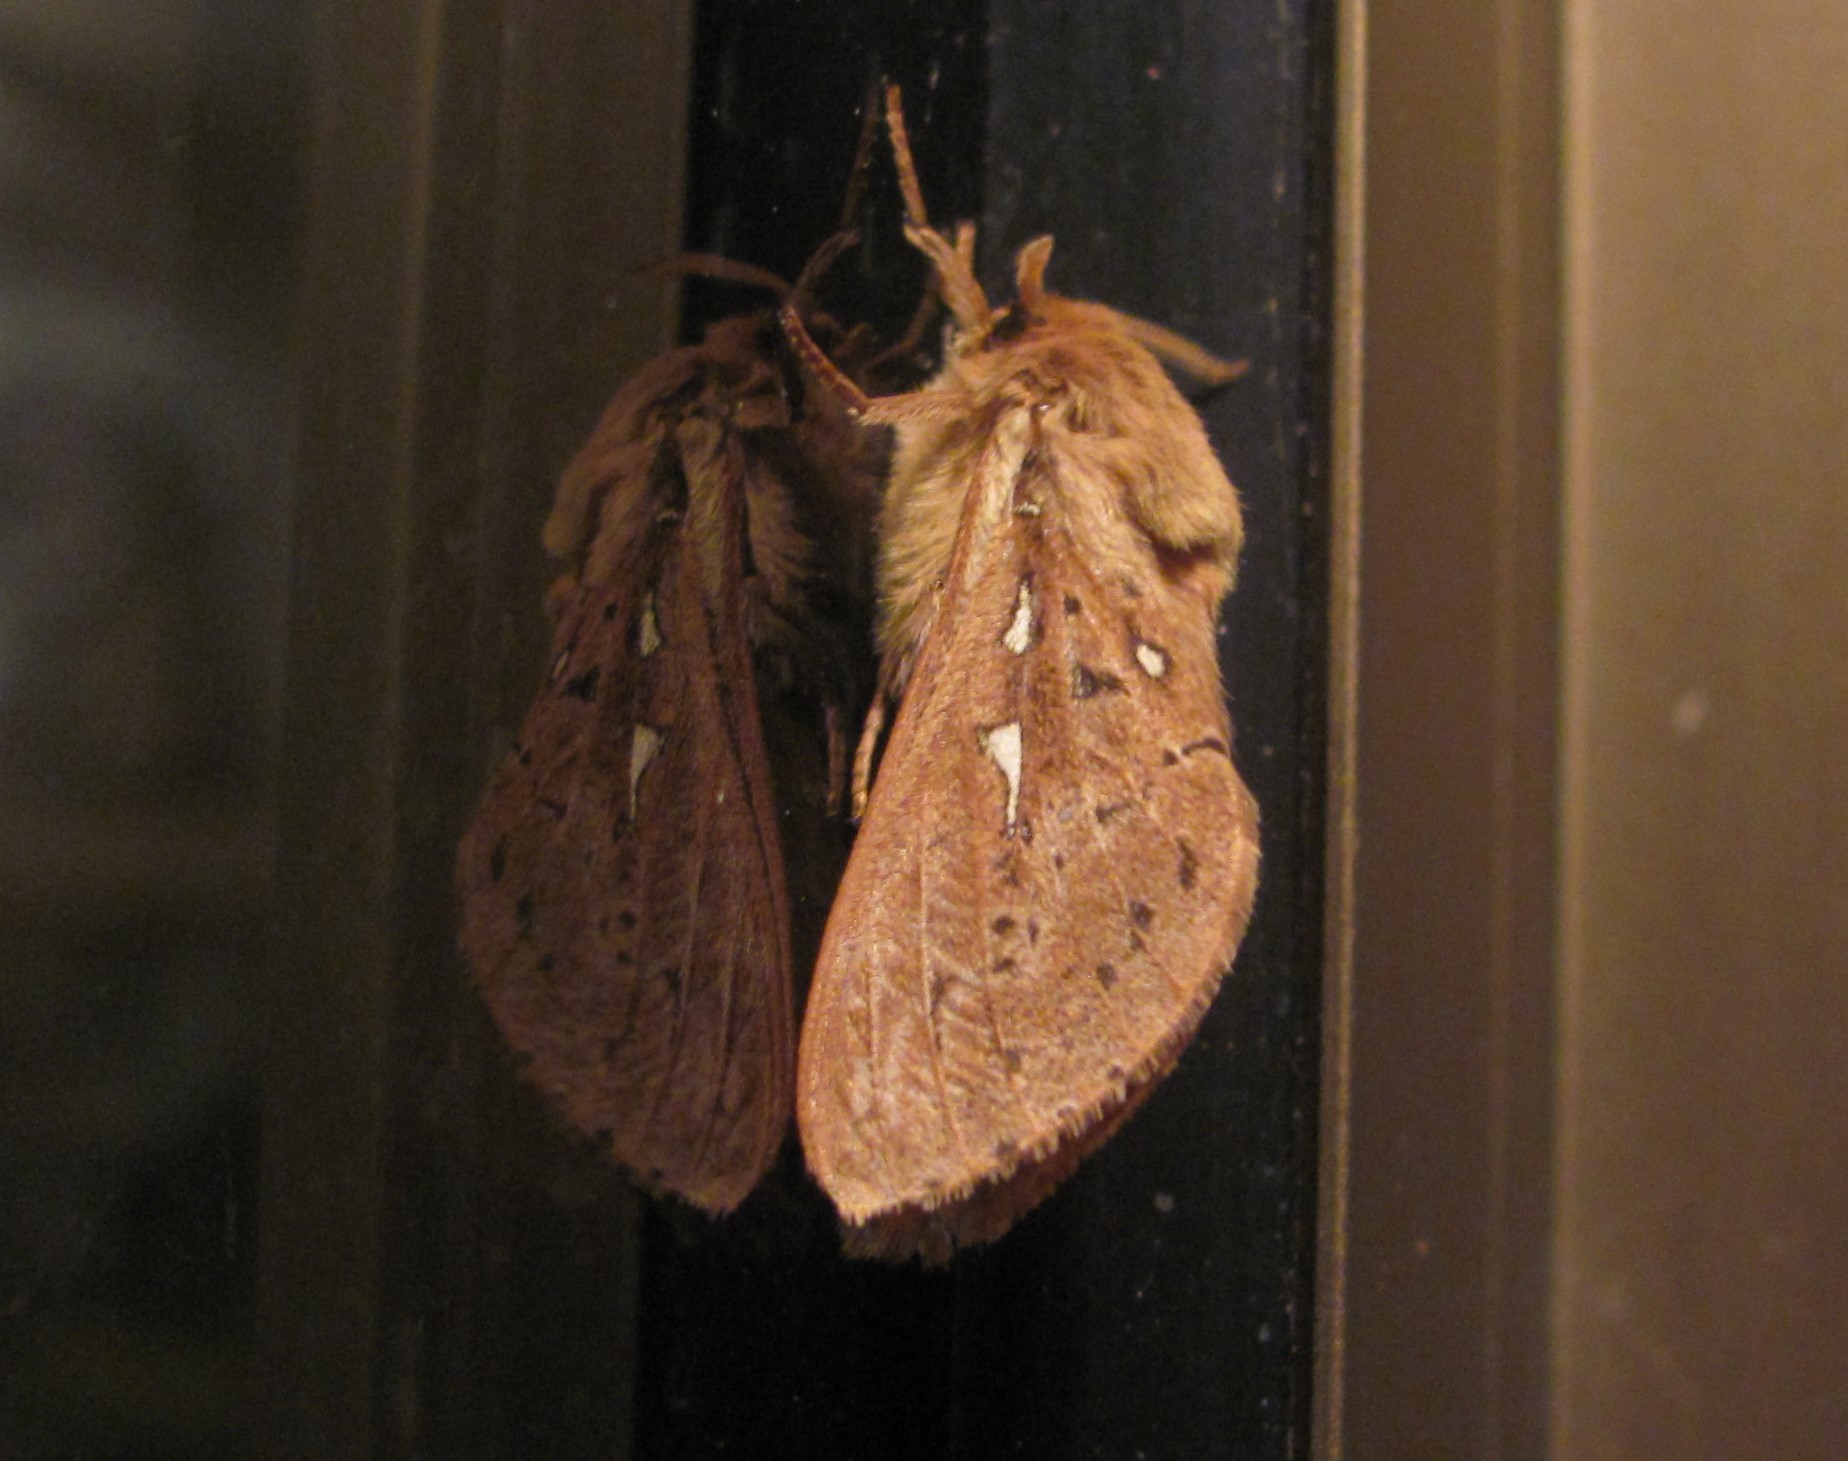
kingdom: Animalia
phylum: Arthropoda
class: Insecta
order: Lepidoptera
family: Hepialidae
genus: Wiseana
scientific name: Wiseana copularis
